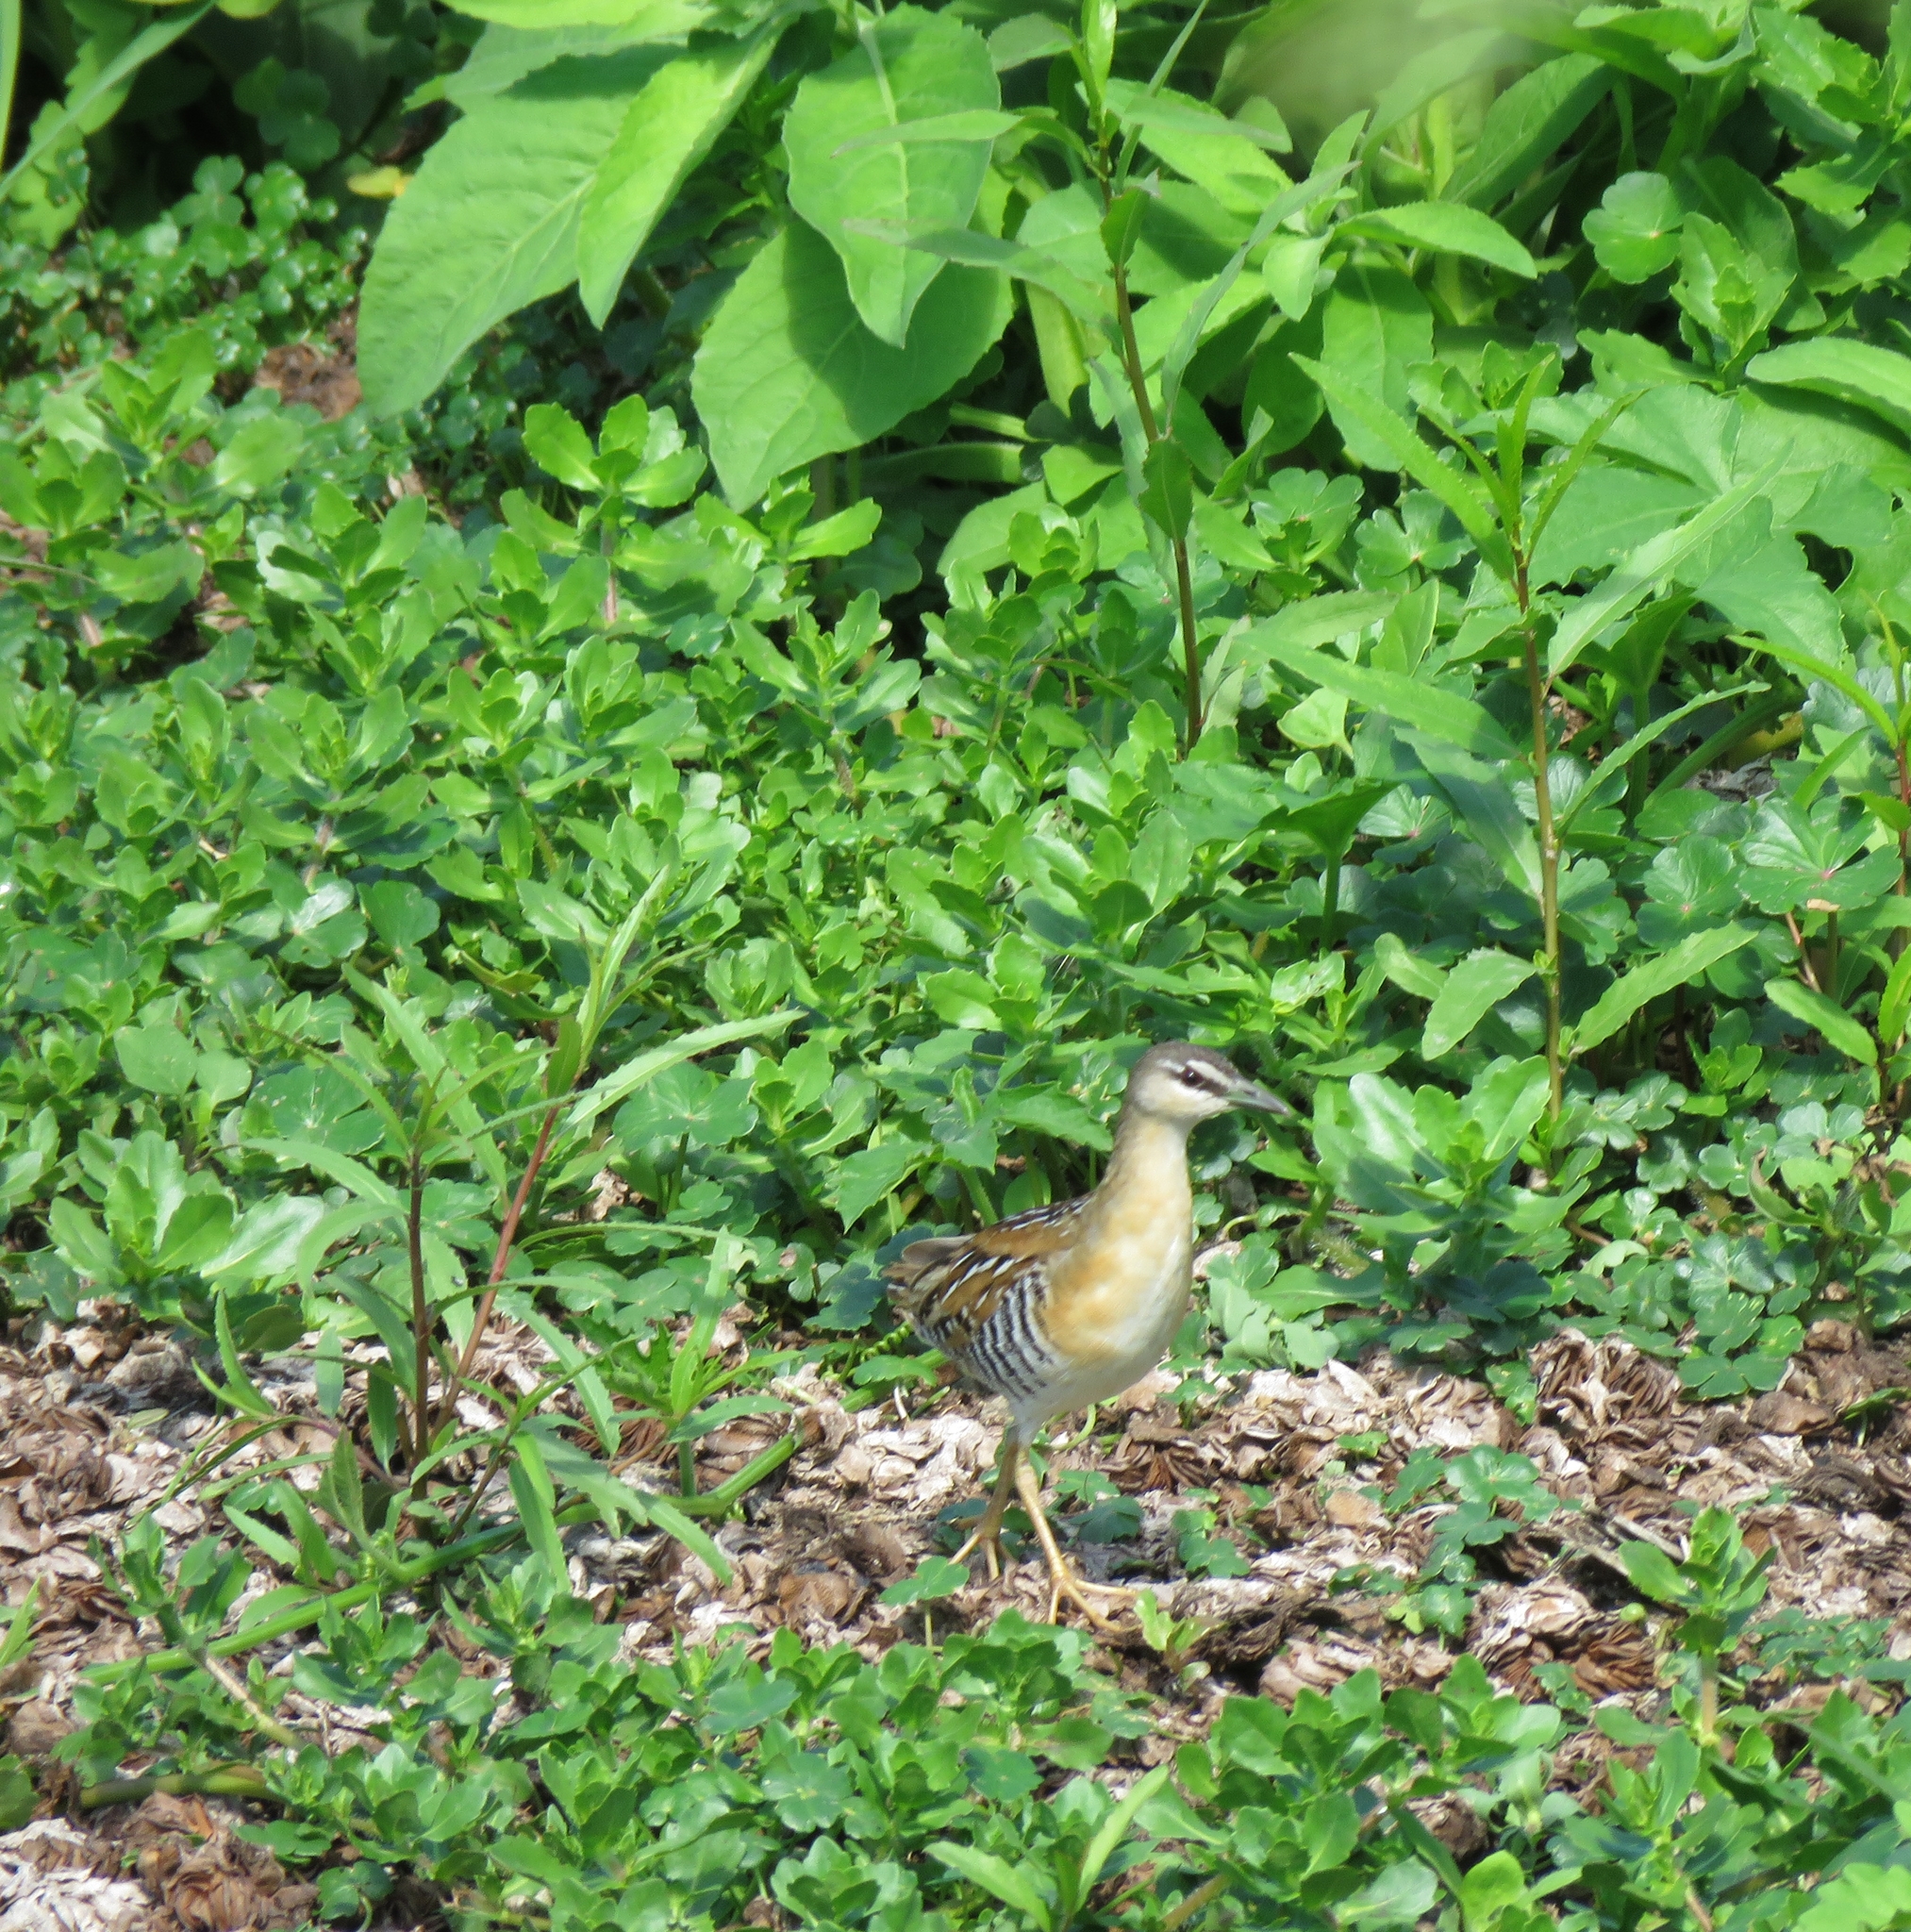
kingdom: Animalia
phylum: Chordata
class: Aves
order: Gruiformes
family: Rallidae
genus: Porzana
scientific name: Porzana flaviventer
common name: Yellow-breasted crake
